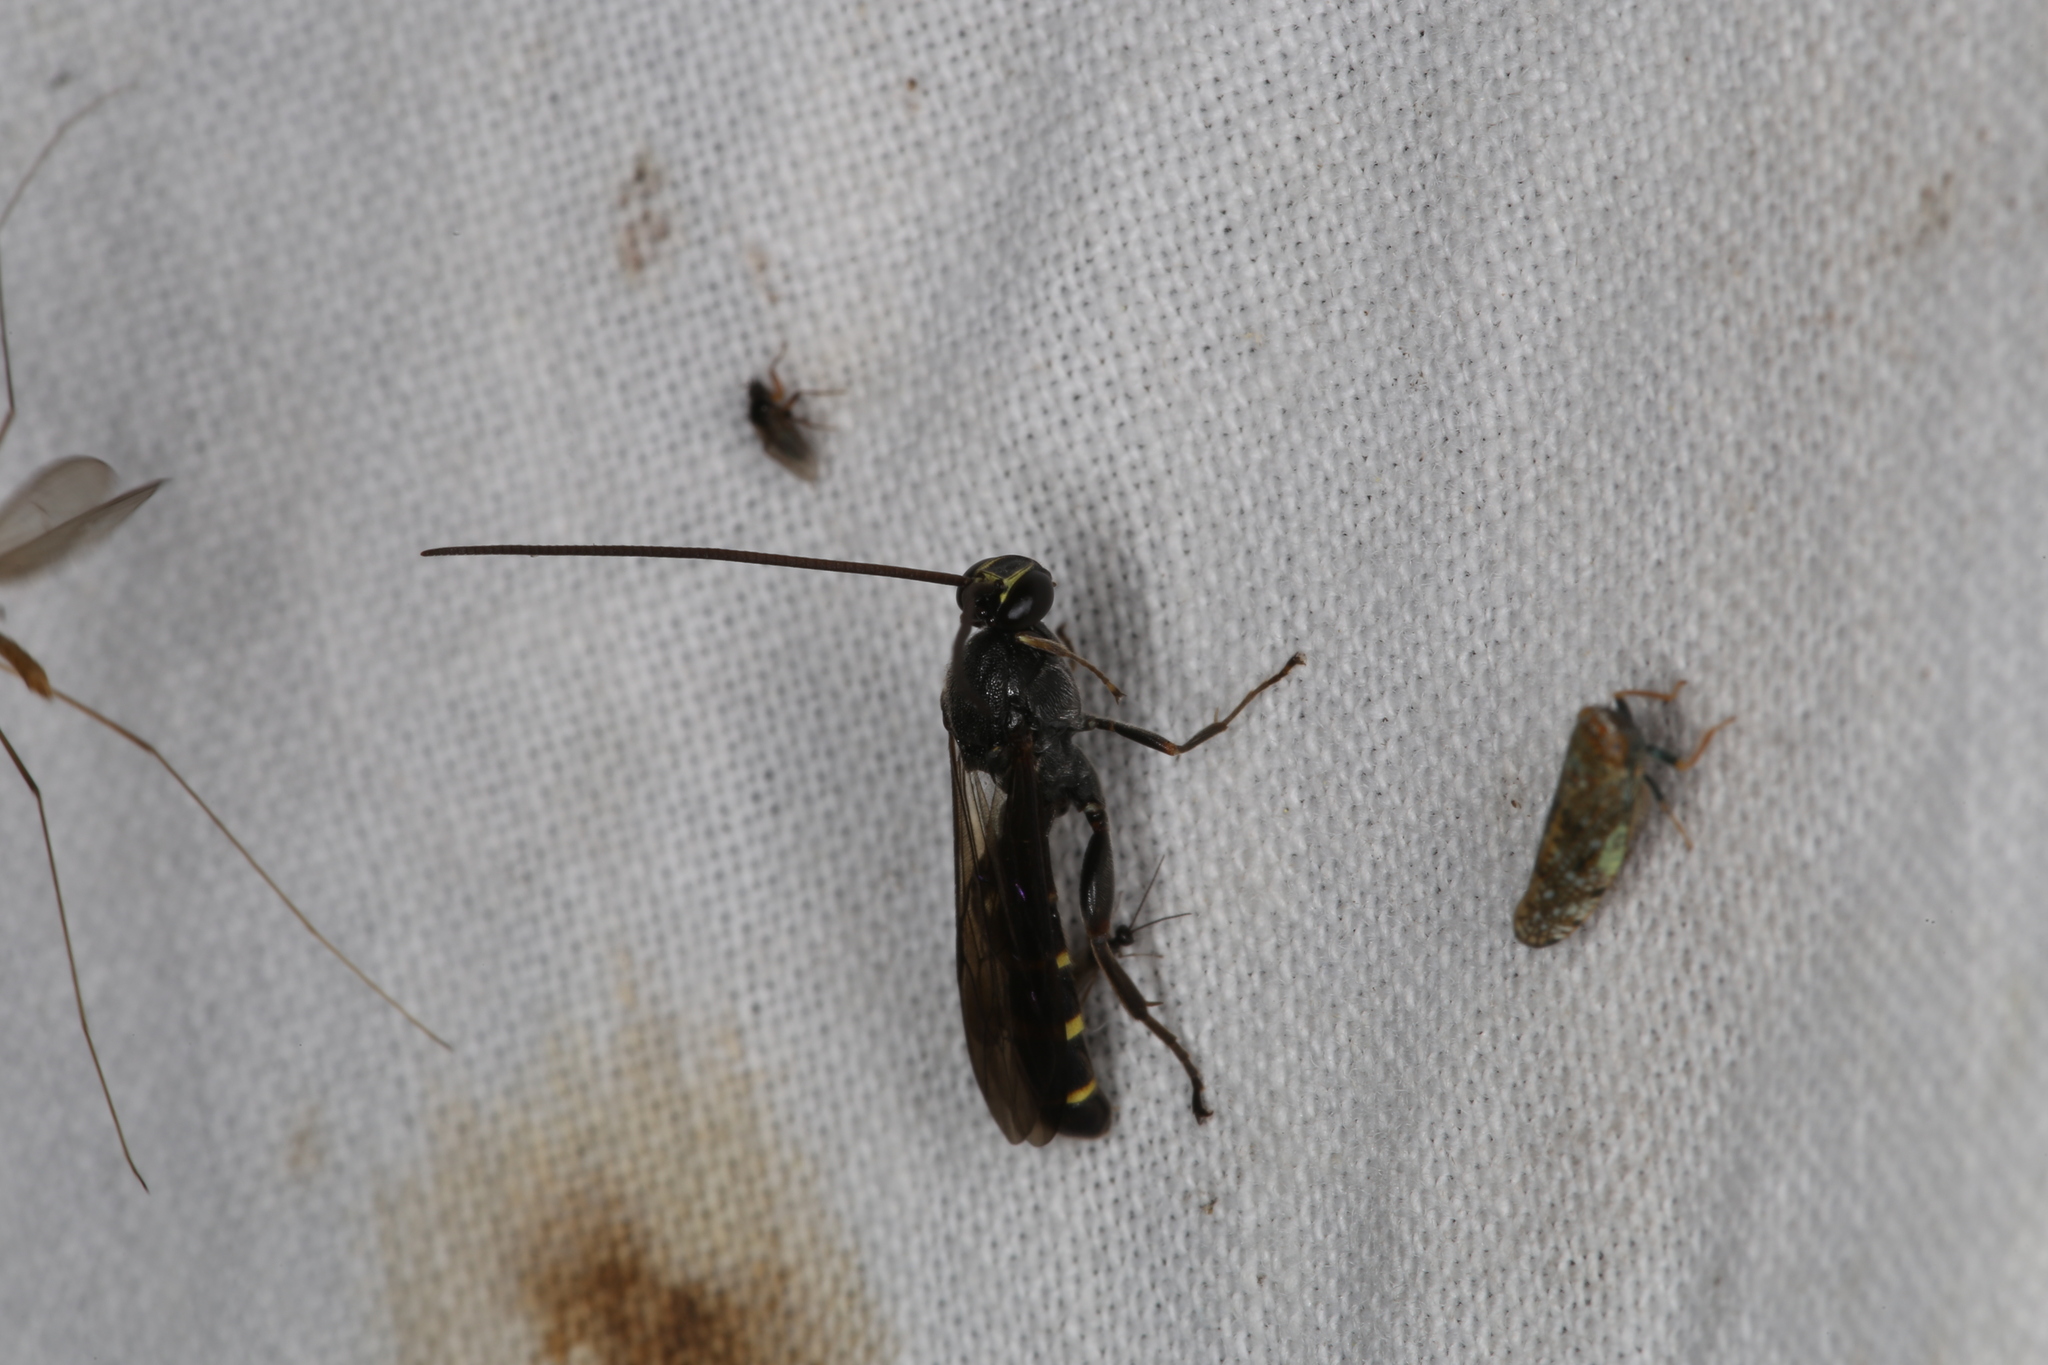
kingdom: Animalia
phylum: Arthropoda
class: Insecta
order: Hymenoptera
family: Ichneumonidae
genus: Metopius
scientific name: Metopius fuscipennis
